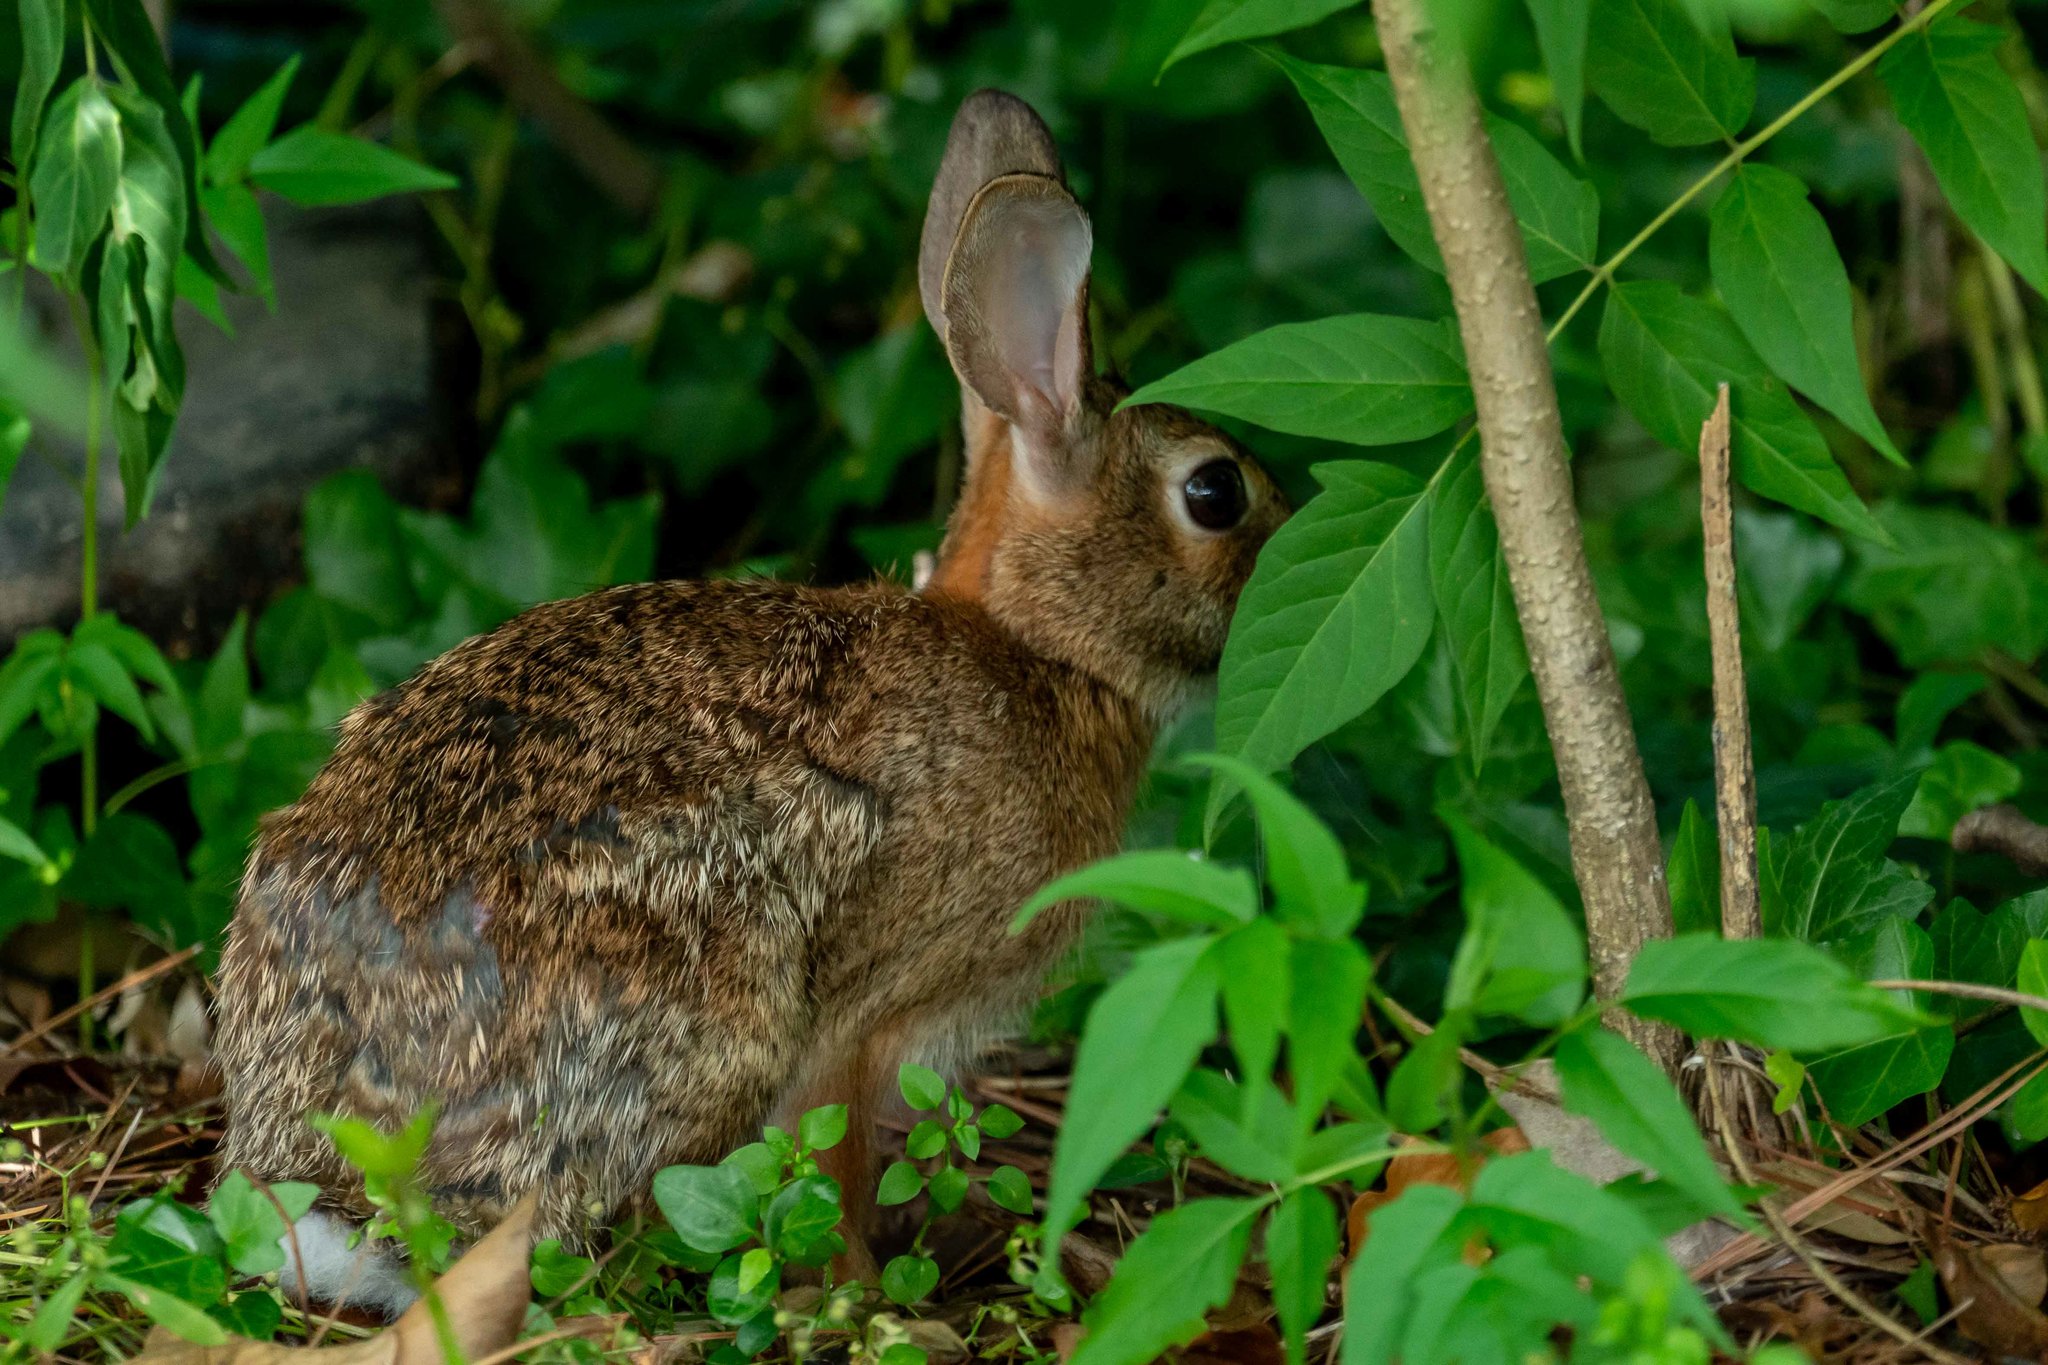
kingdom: Animalia
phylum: Chordata
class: Mammalia
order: Lagomorpha
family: Leporidae
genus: Sylvilagus
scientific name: Sylvilagus floridanus
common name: Eastern cottontail
